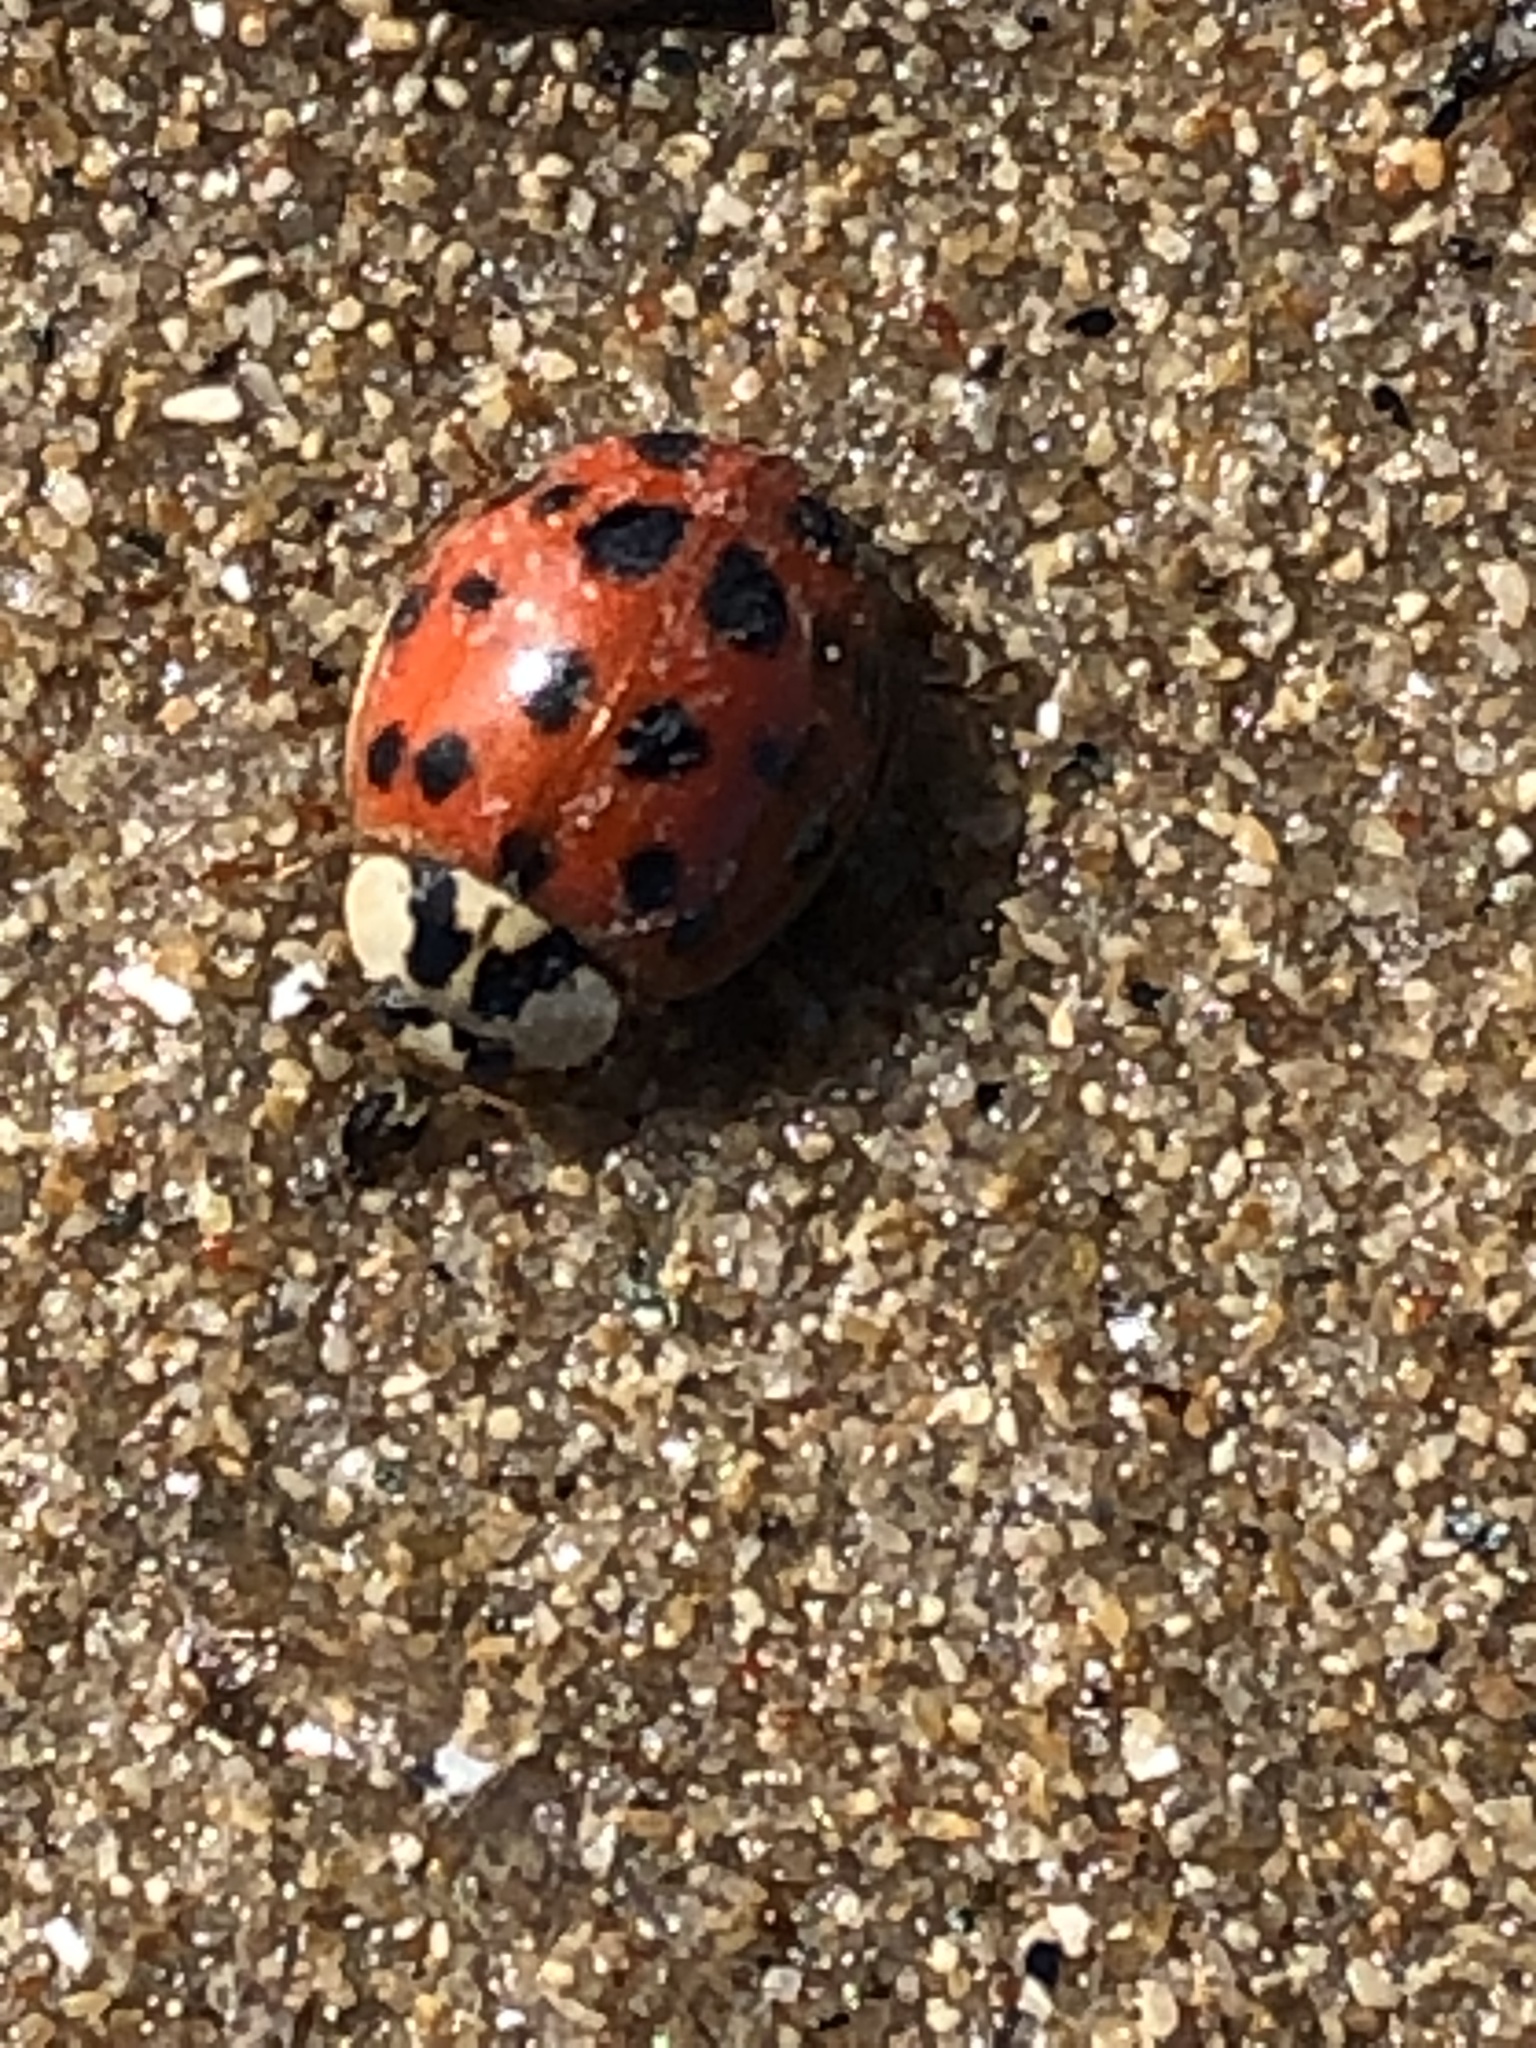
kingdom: Animalia
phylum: Arthropoda
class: Insecta
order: Coleoptera
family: Coccinellidae
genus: Harmonia
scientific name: Harmonia axyridis
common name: Harlequin ladybird
